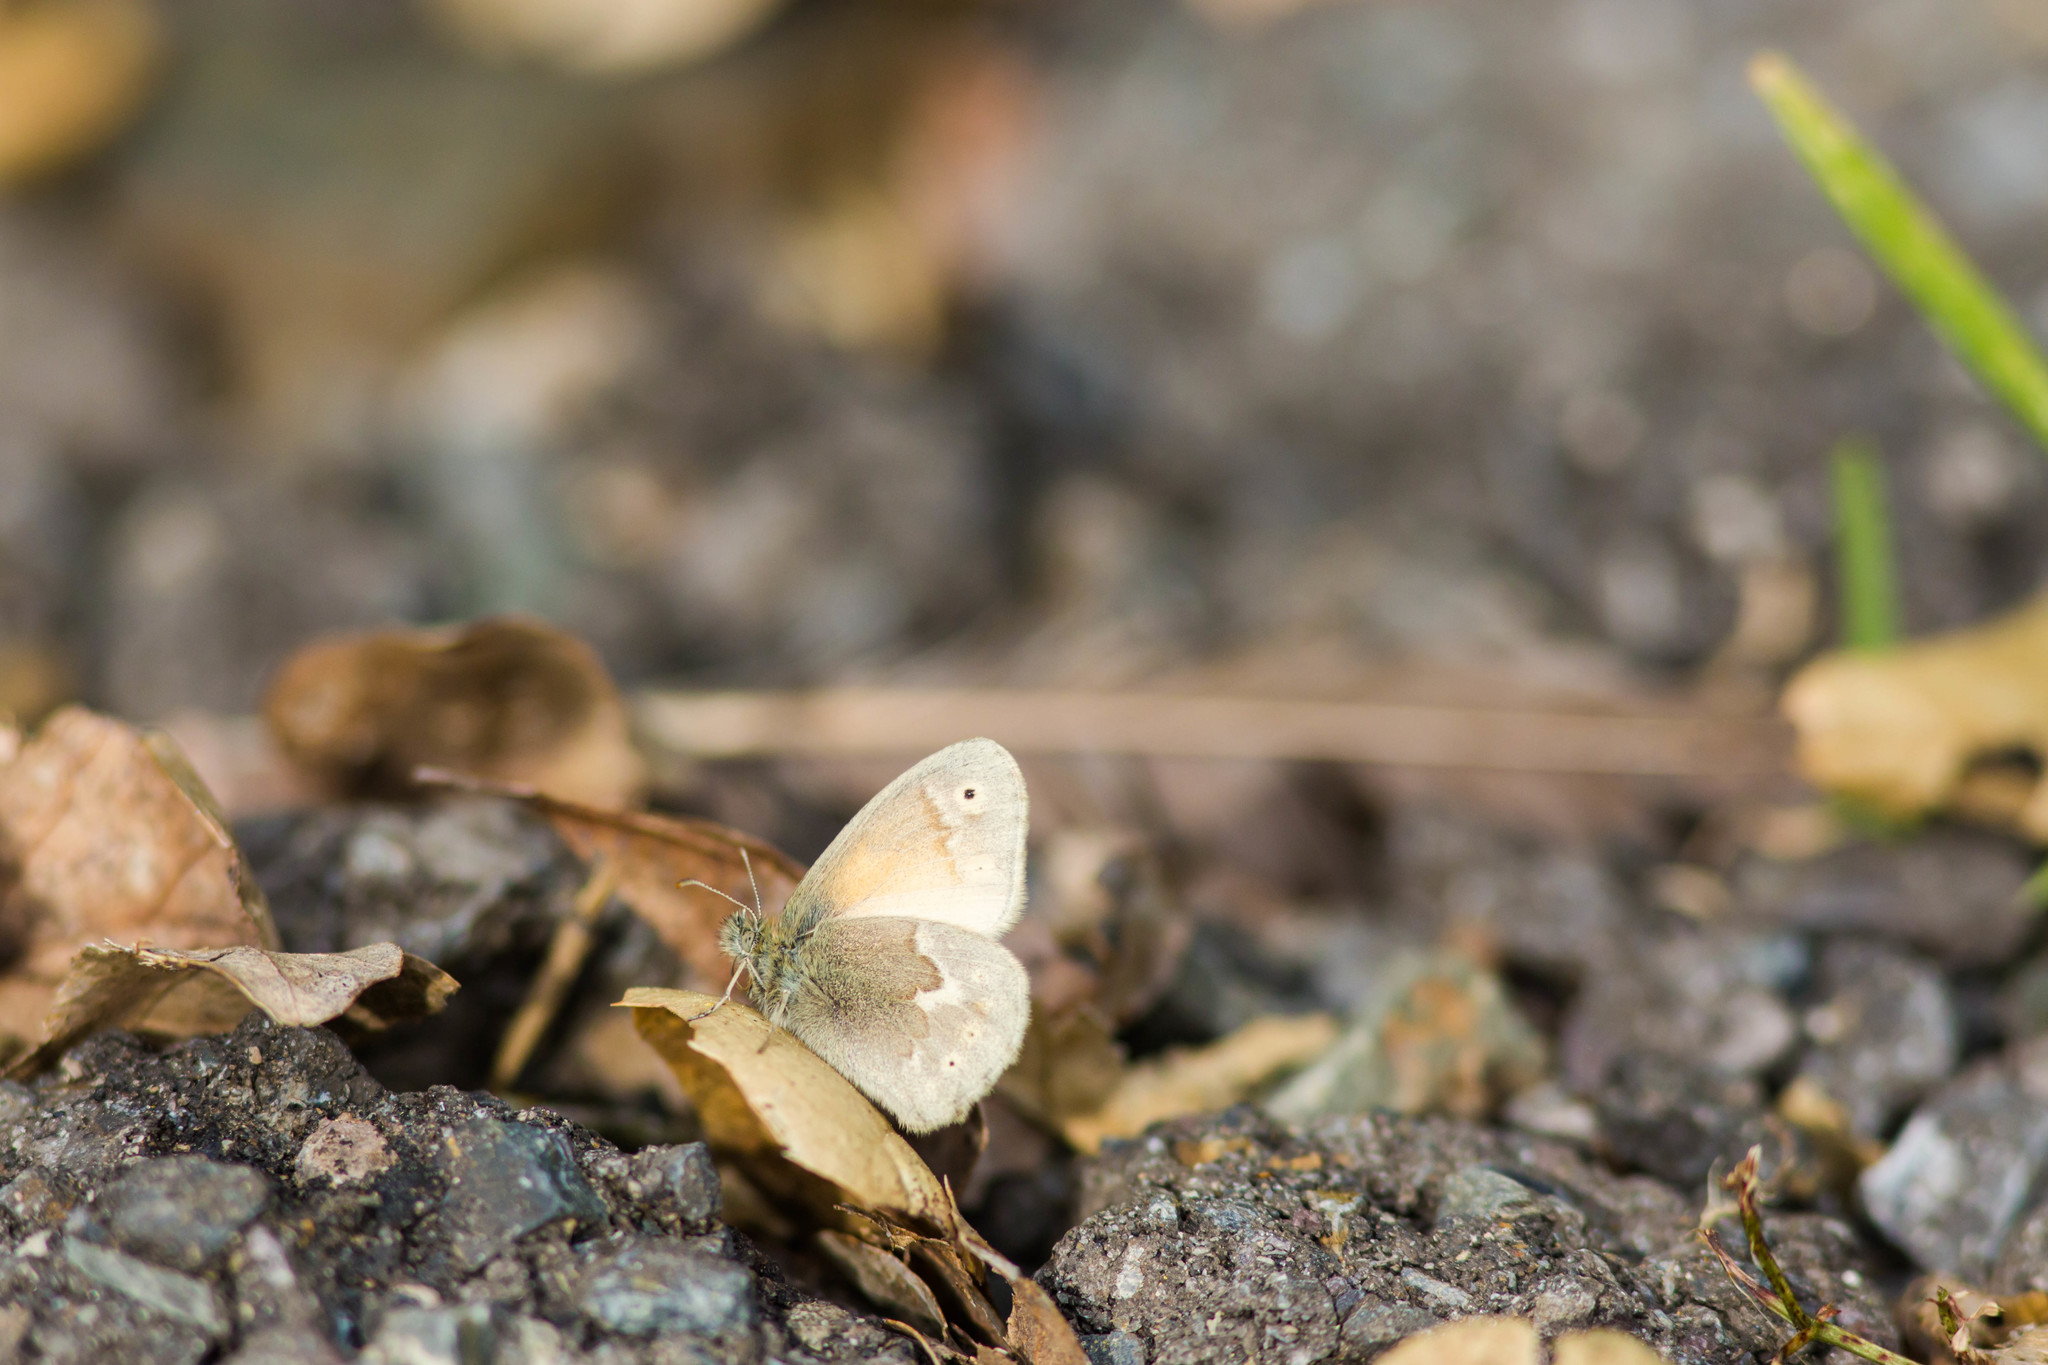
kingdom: Animalia
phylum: Arthropoda
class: Insecta
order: Lepidoptera
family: Nymphalidae
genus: Coenonympha
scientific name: Coenonympha california
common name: Common ringlet
